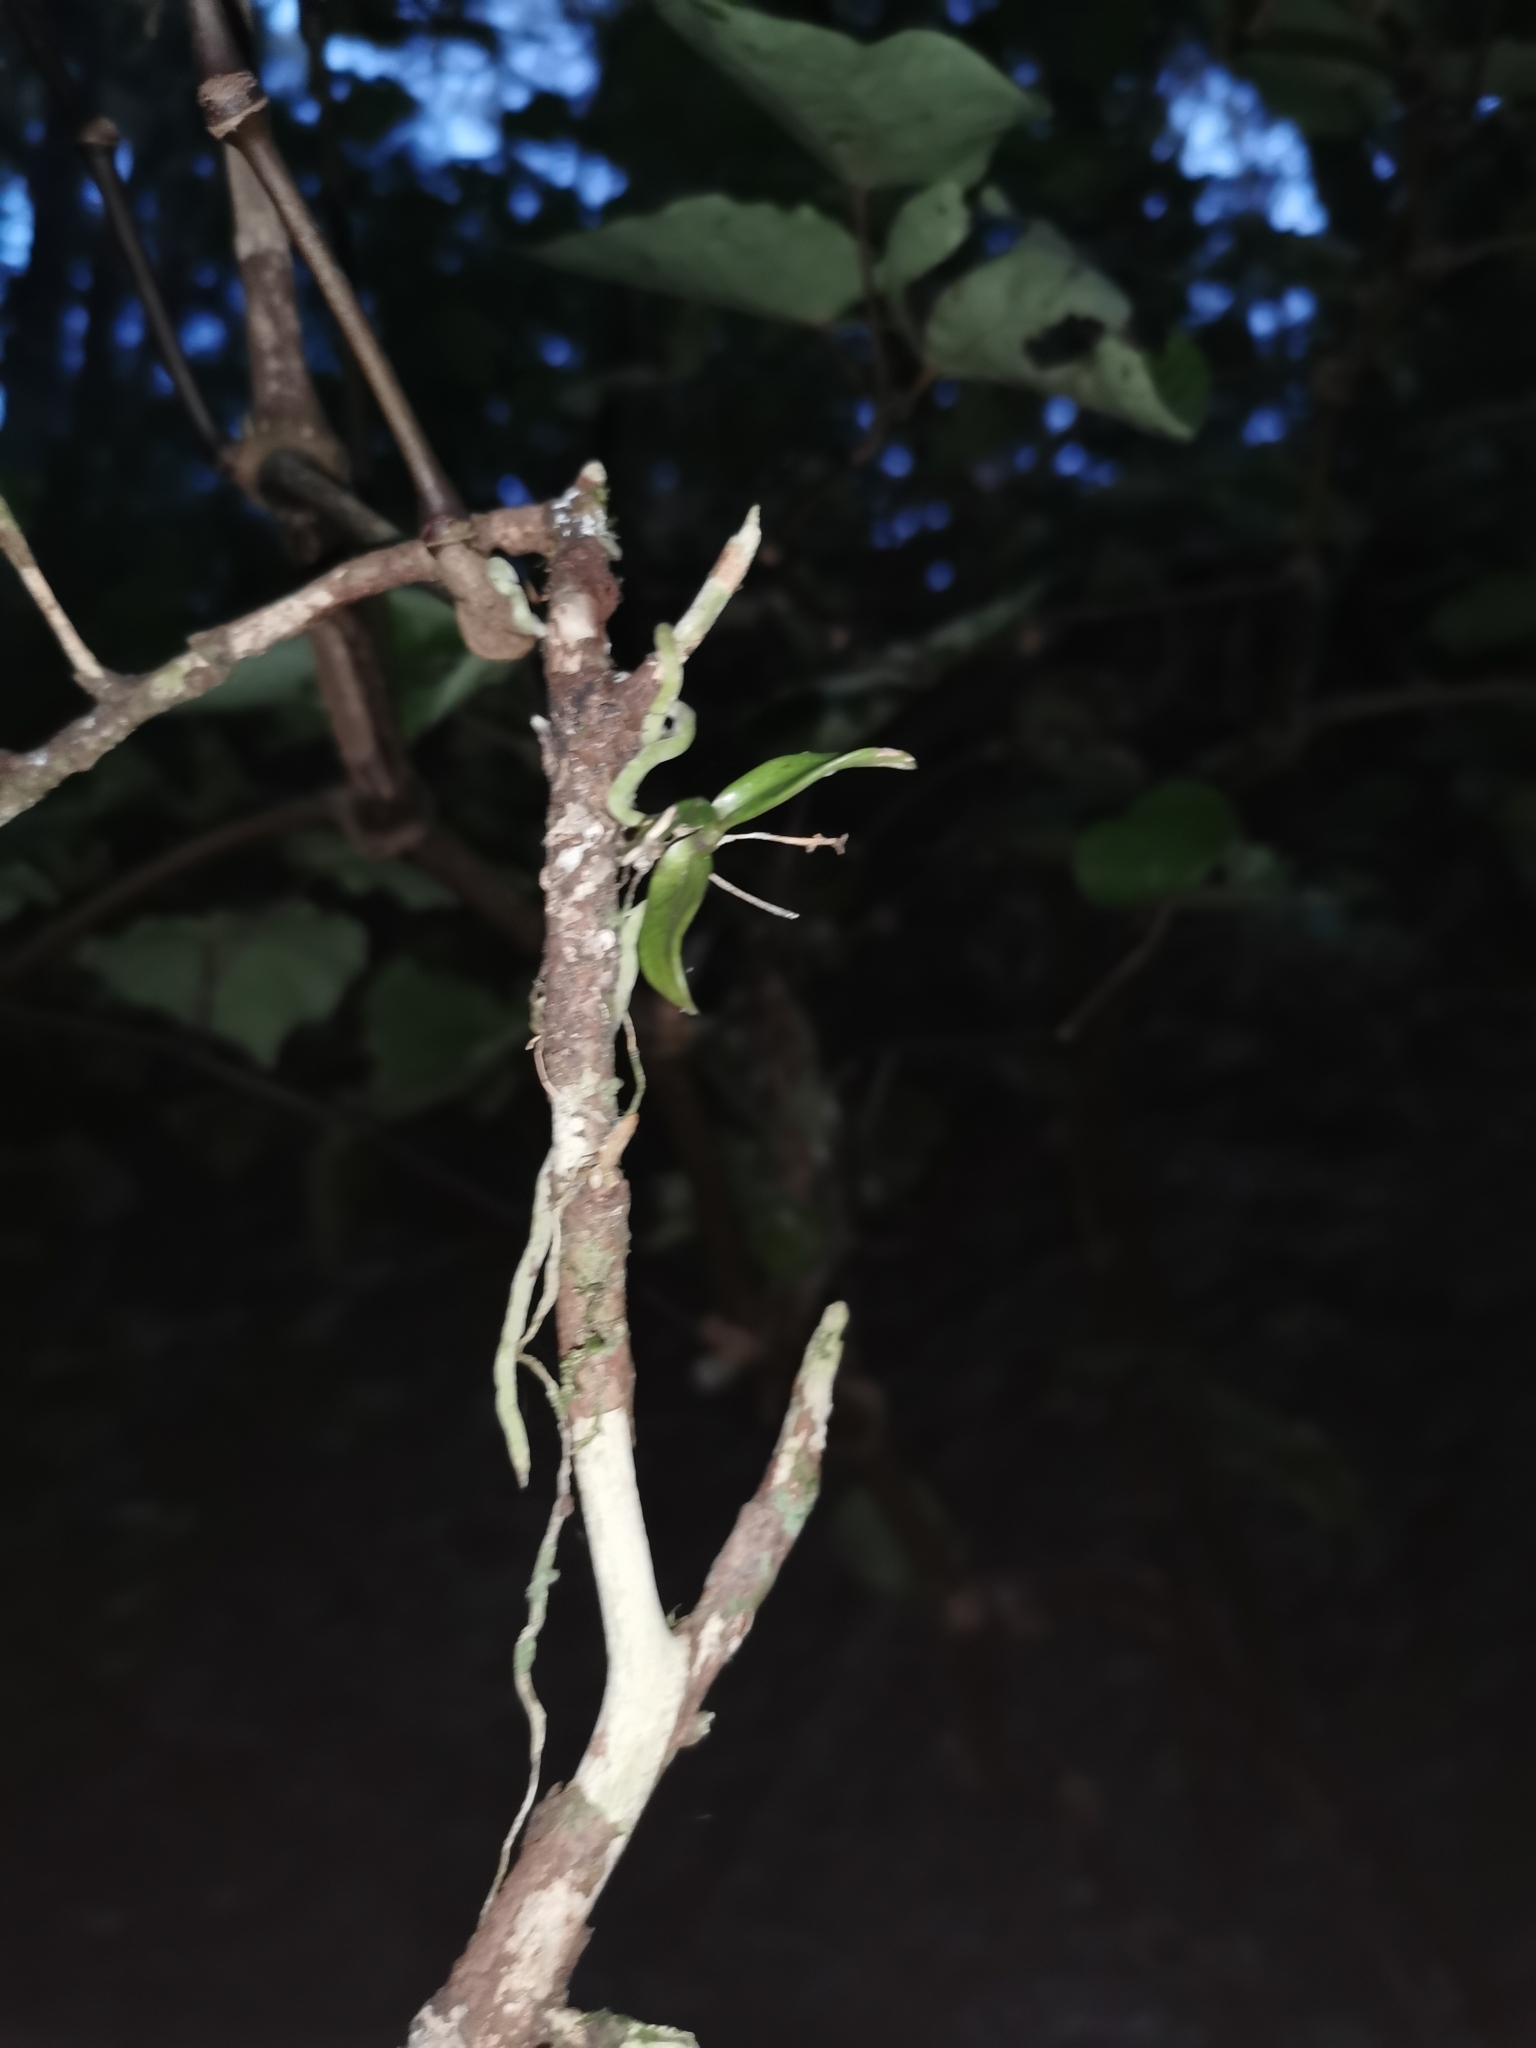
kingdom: Plantae
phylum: Tracheophyta
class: Liliopsida
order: Asparagales
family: Orchidaceae
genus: Drymoanthus
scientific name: Drymoanthus adversus
